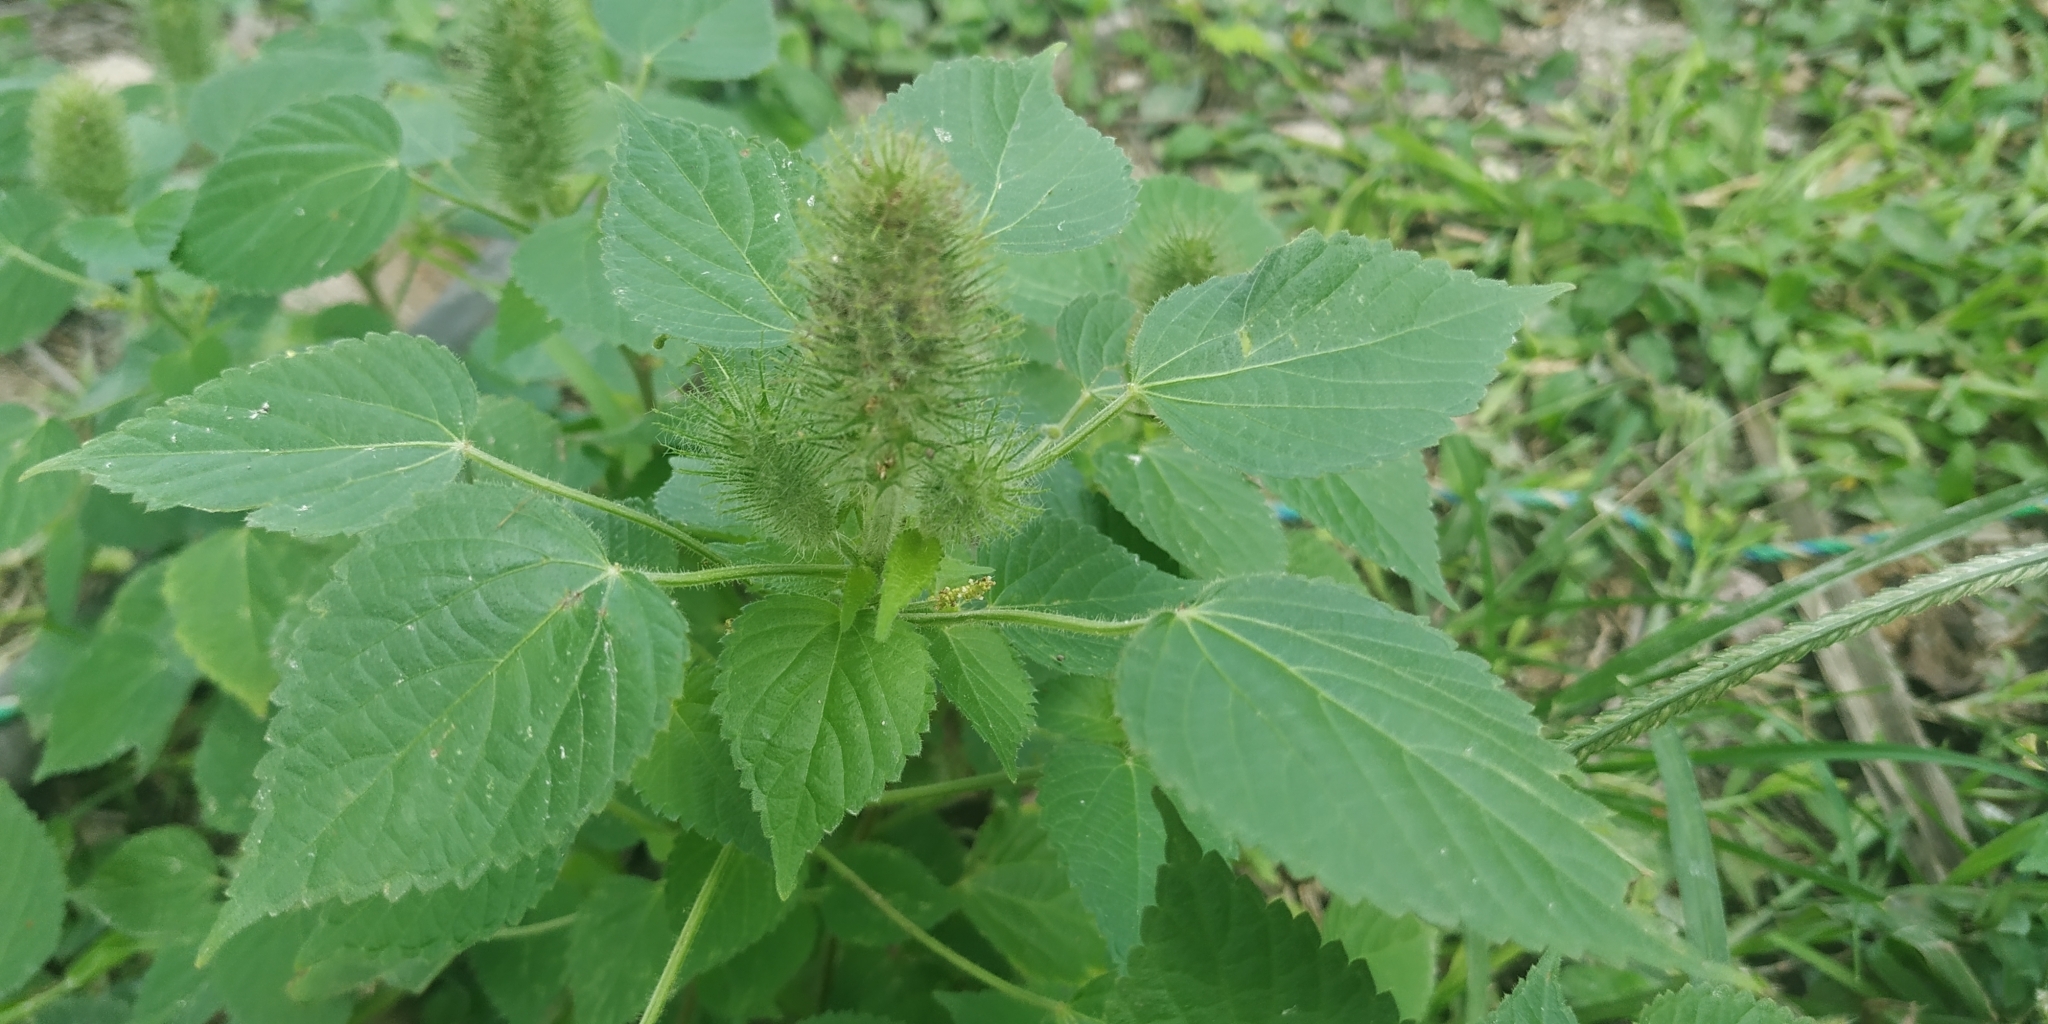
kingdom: Plantae
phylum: Tracheophyta
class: Magnoliopsida
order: Malpighiales
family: Euphorbiaceae
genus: Acalypha
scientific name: Acalypha alopecuroidea
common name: Foxtail copperleaf
